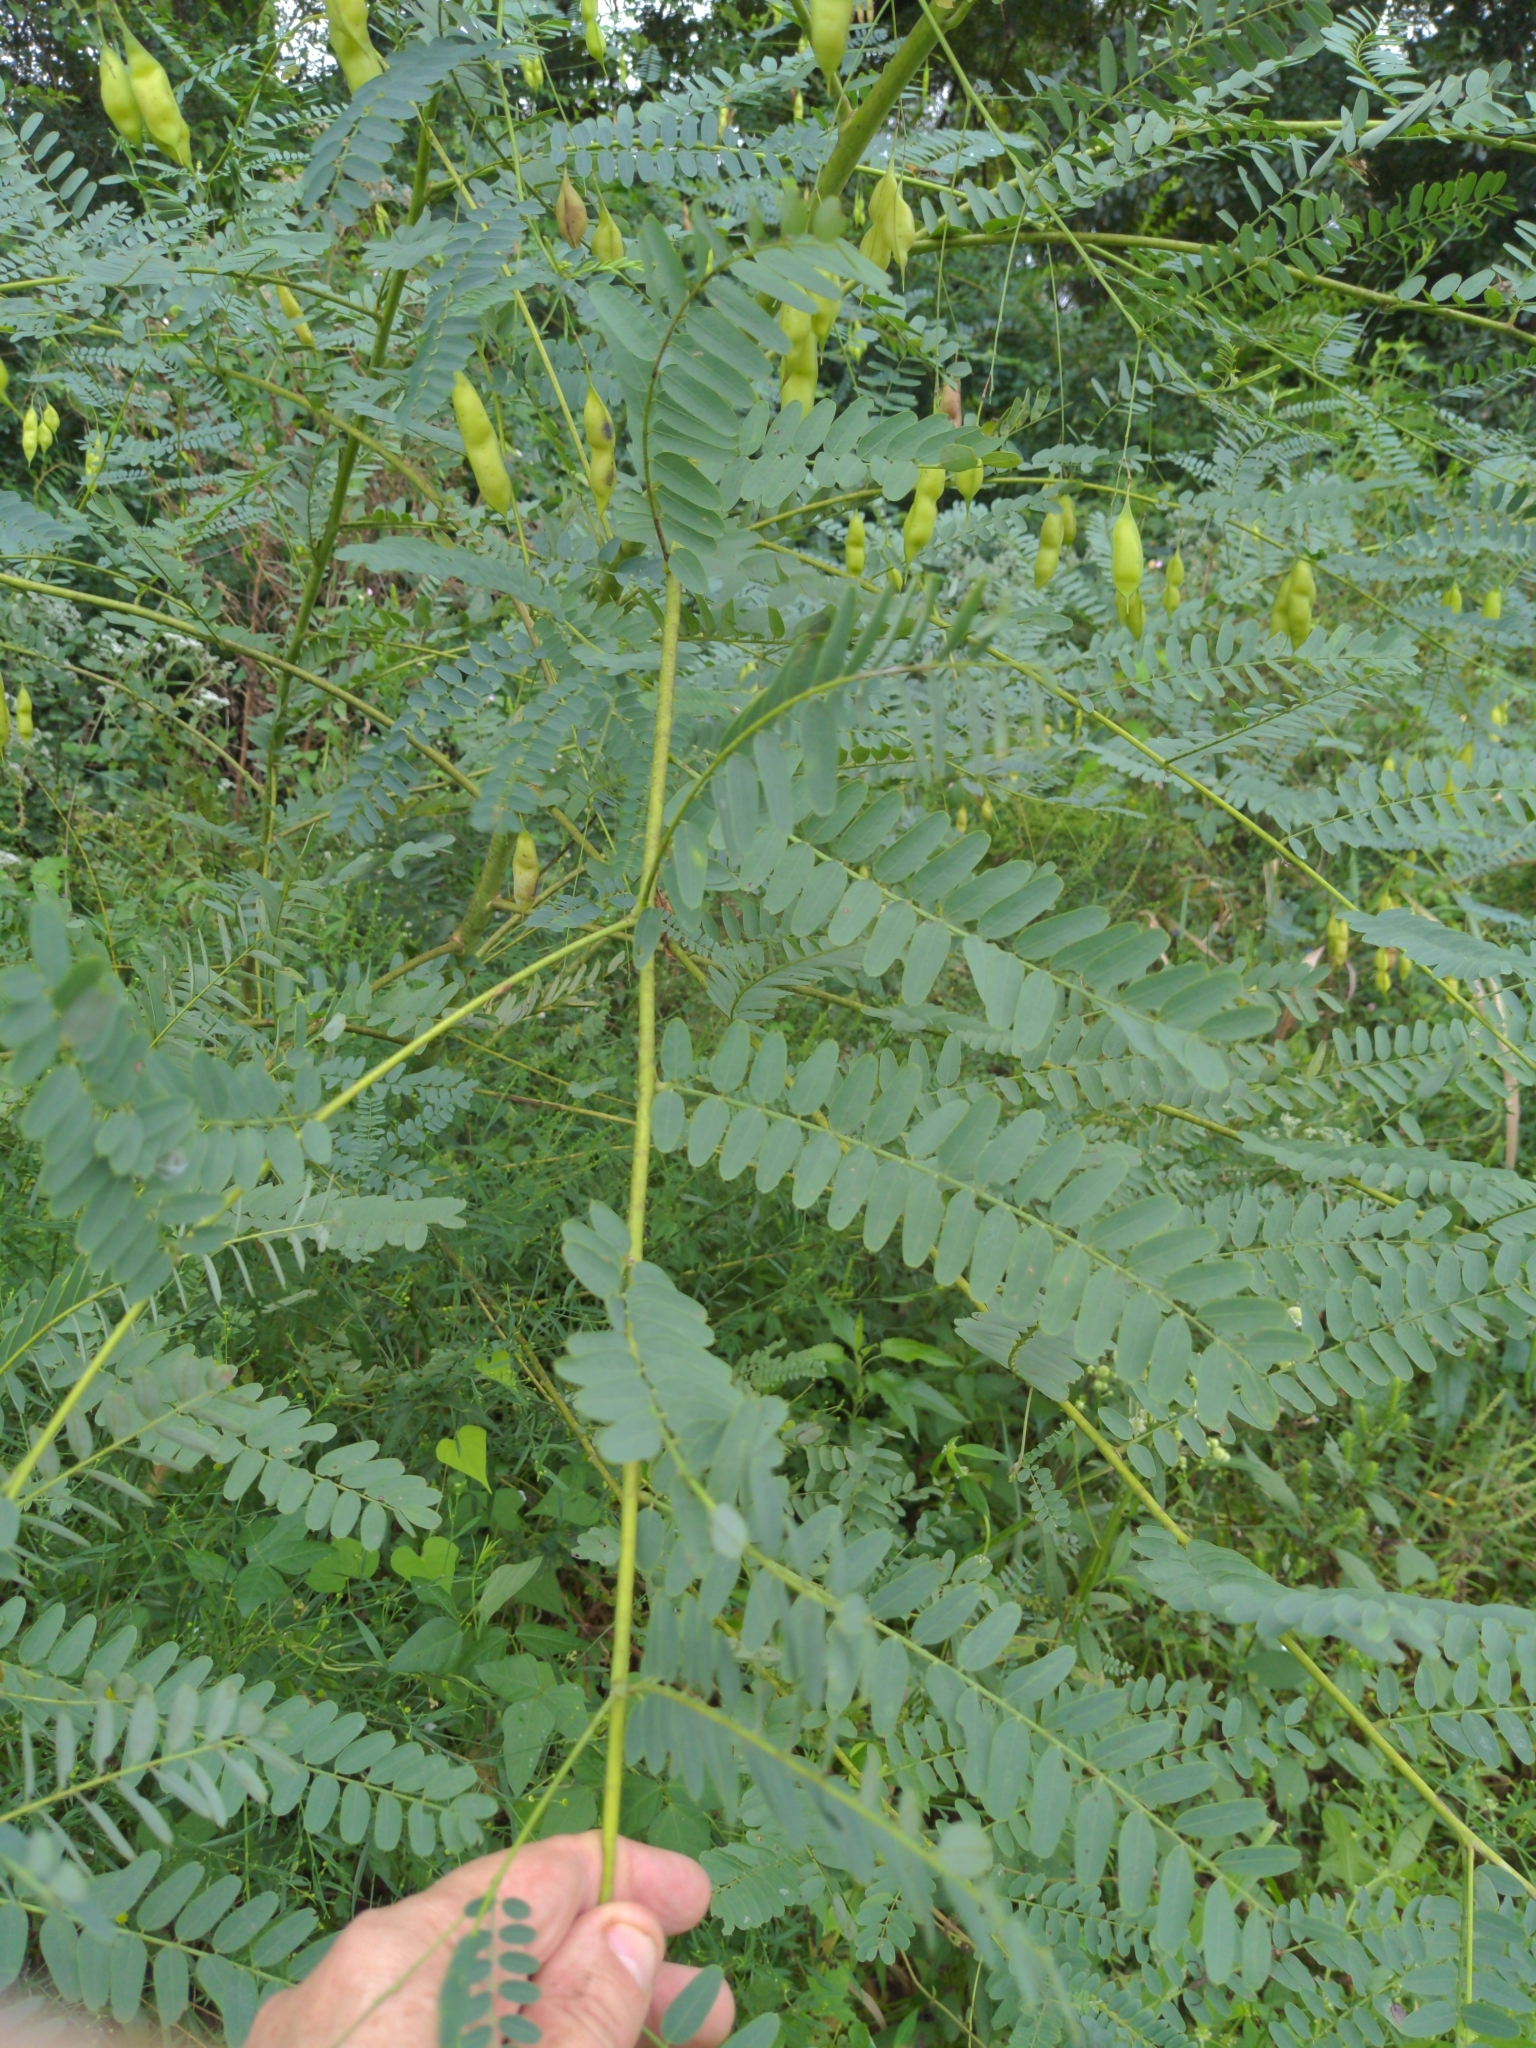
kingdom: Plantae
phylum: Tracheophyta
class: Magnoliopsida
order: Fabales
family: Fabaceae
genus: Sesbania
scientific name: Sesbania vesicaria
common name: Bagpod
